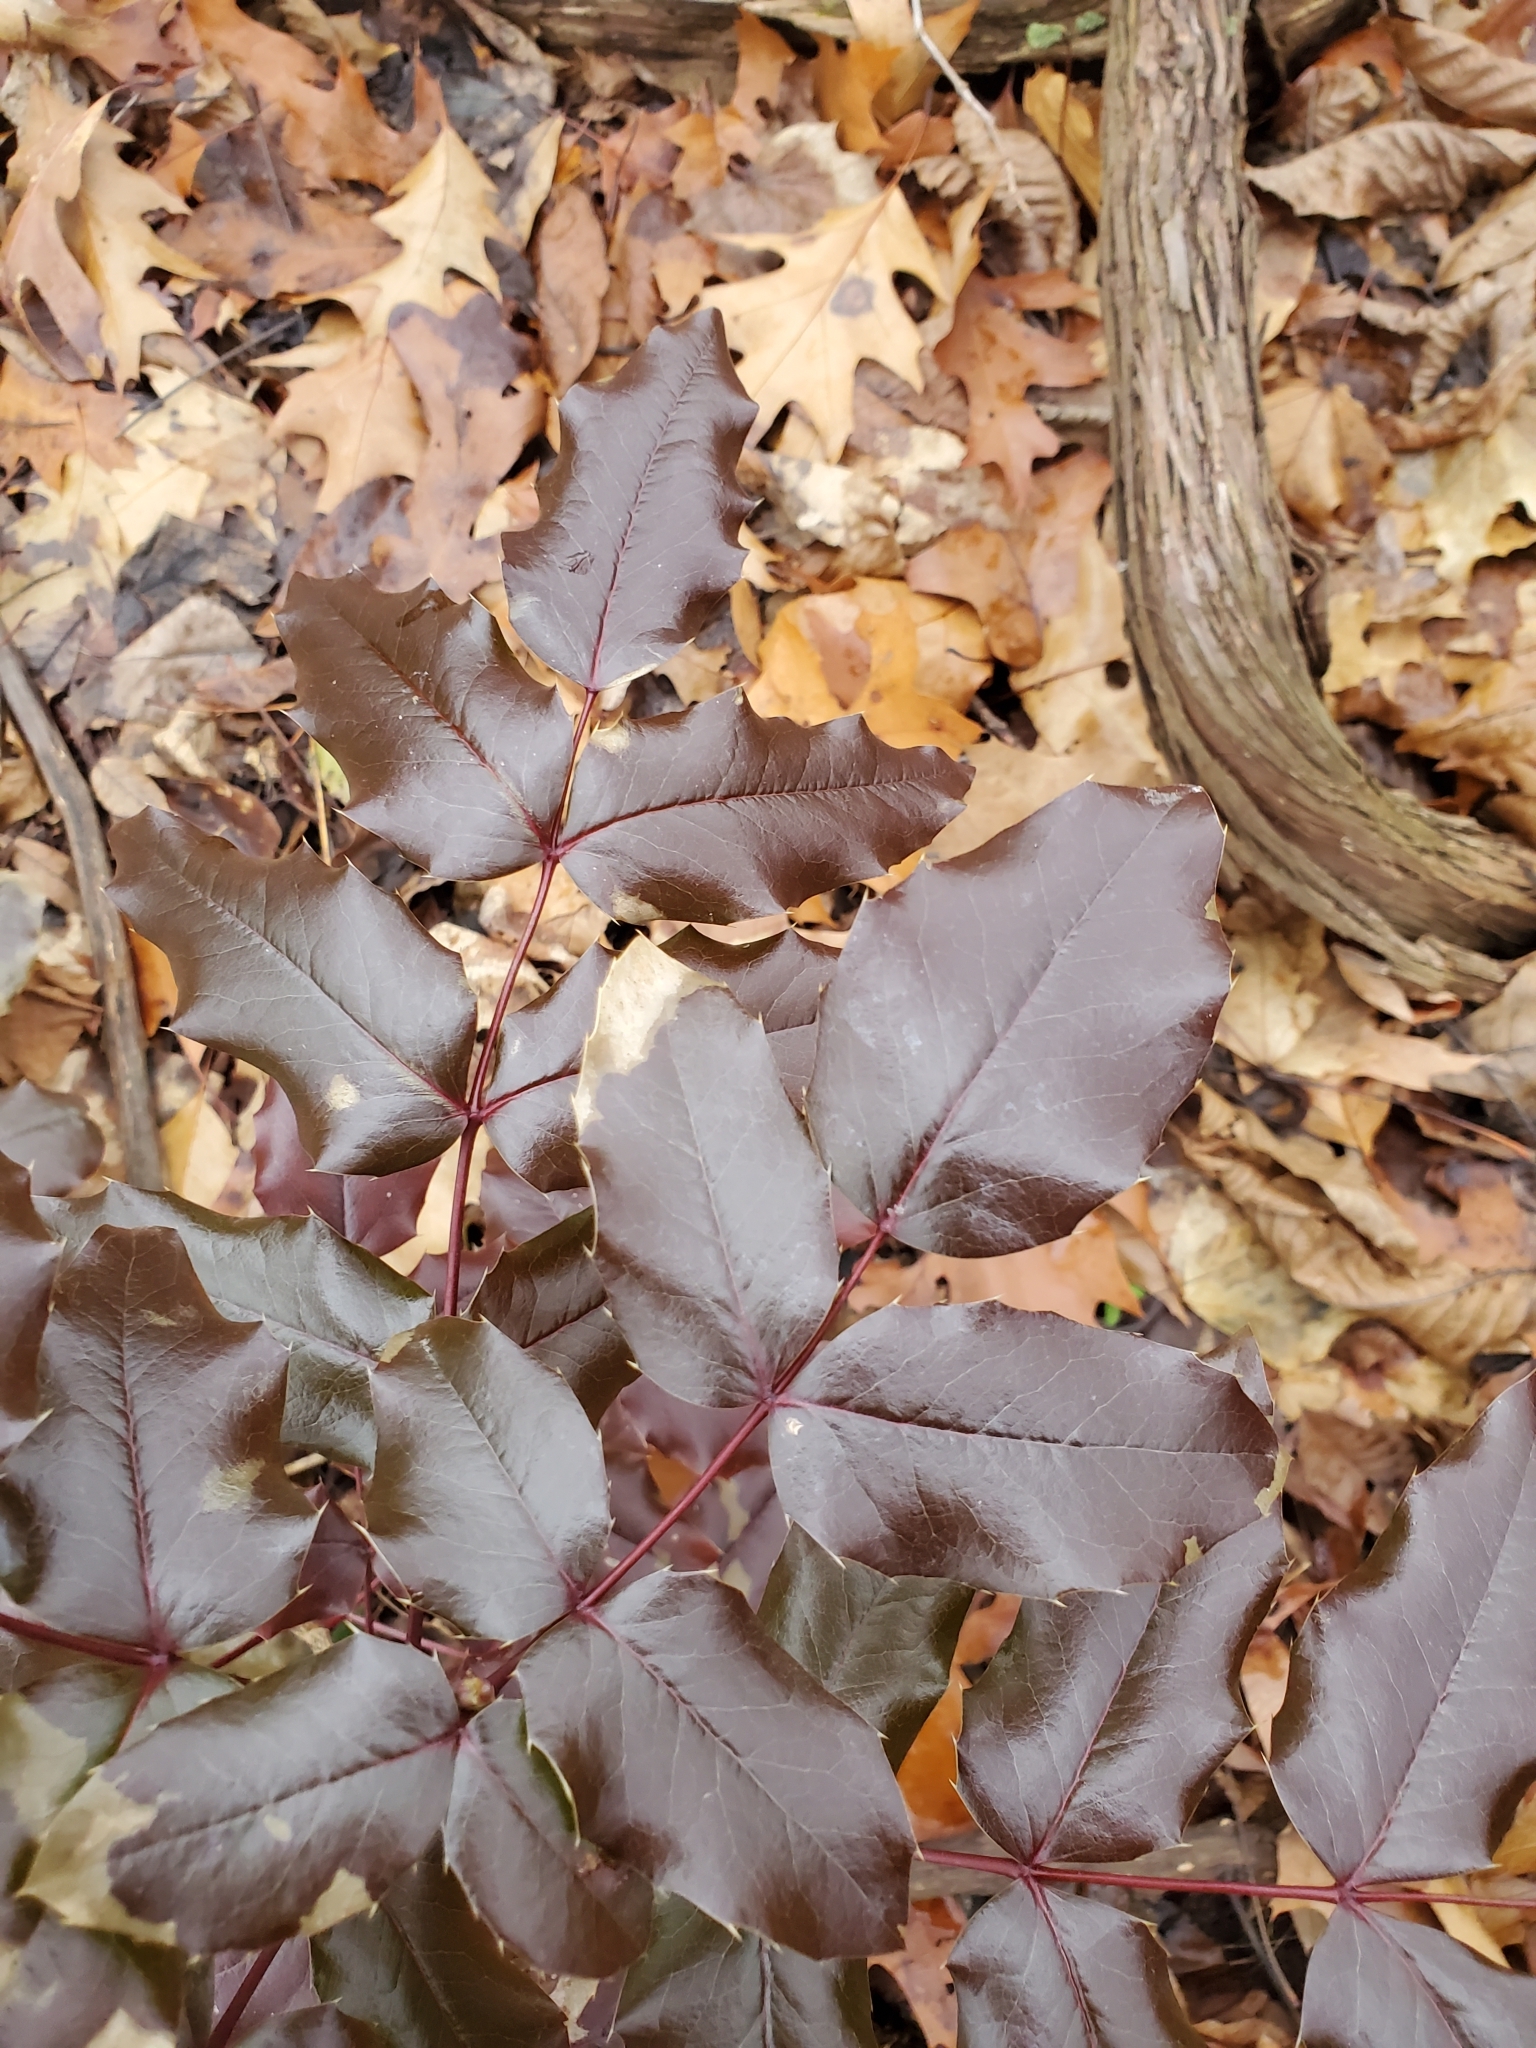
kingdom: Plantae
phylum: Tracheophyta
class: Magnoliopsida
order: Ranunculales
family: Berberidaceae
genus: Mahonia
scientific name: Mahonia aquifolium
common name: Oregon-grape
